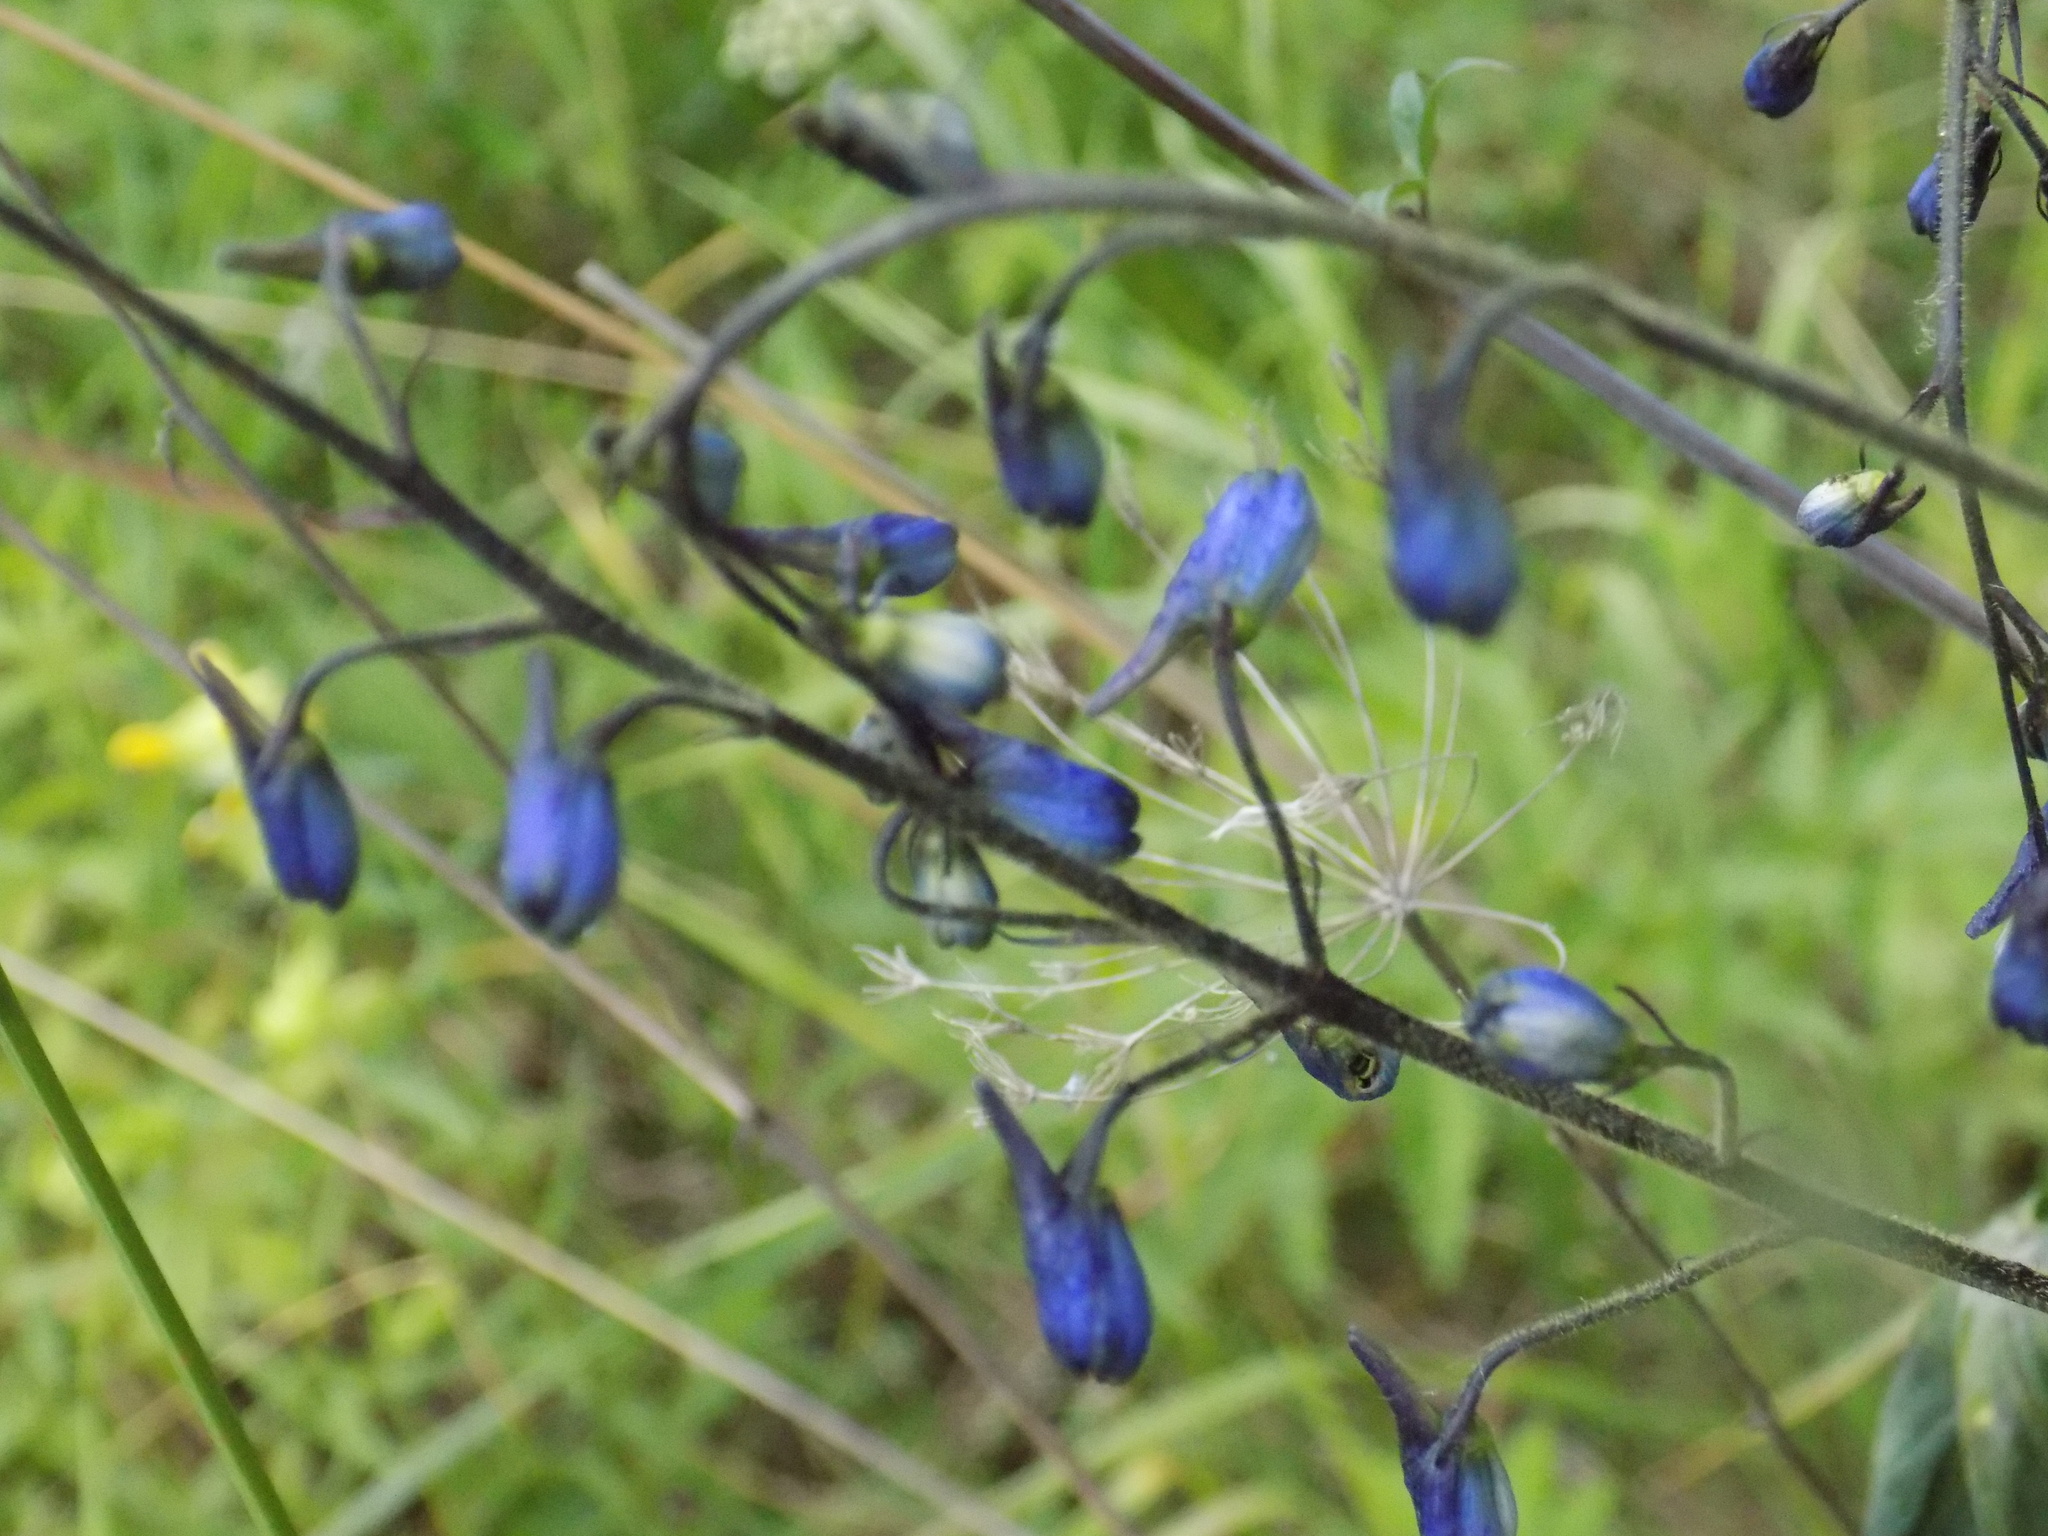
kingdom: Plantae
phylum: Tracheophyta
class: Magnoliopsida
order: Ranunculales
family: Ranunculaceae
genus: Delphinium
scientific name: Delphinium elatum
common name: Candle larkspur
